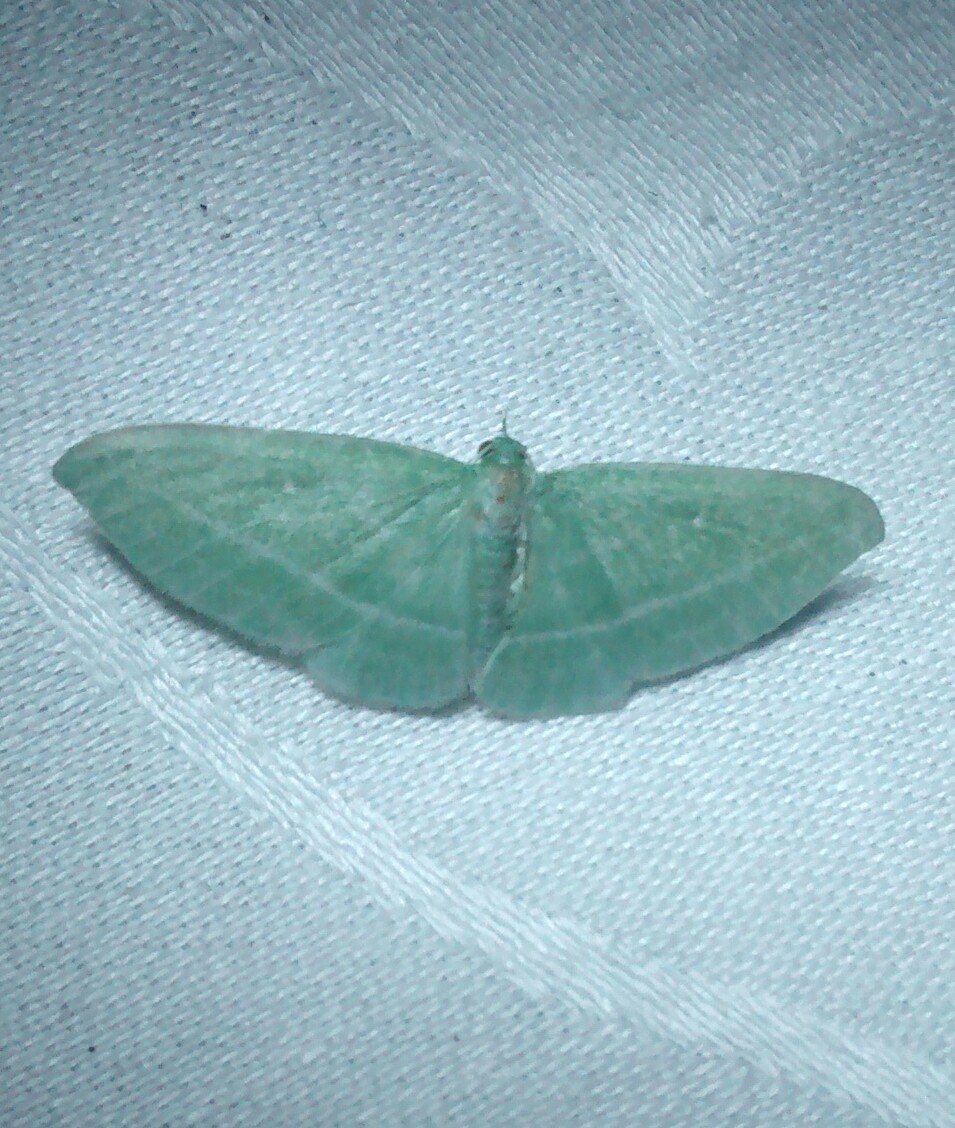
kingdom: Animalia
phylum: Arthropoda
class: Insecta
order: Lepidoptera
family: Geometridae
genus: Dyspteris
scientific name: Dyspteris abortivaria
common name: Bad-wing
